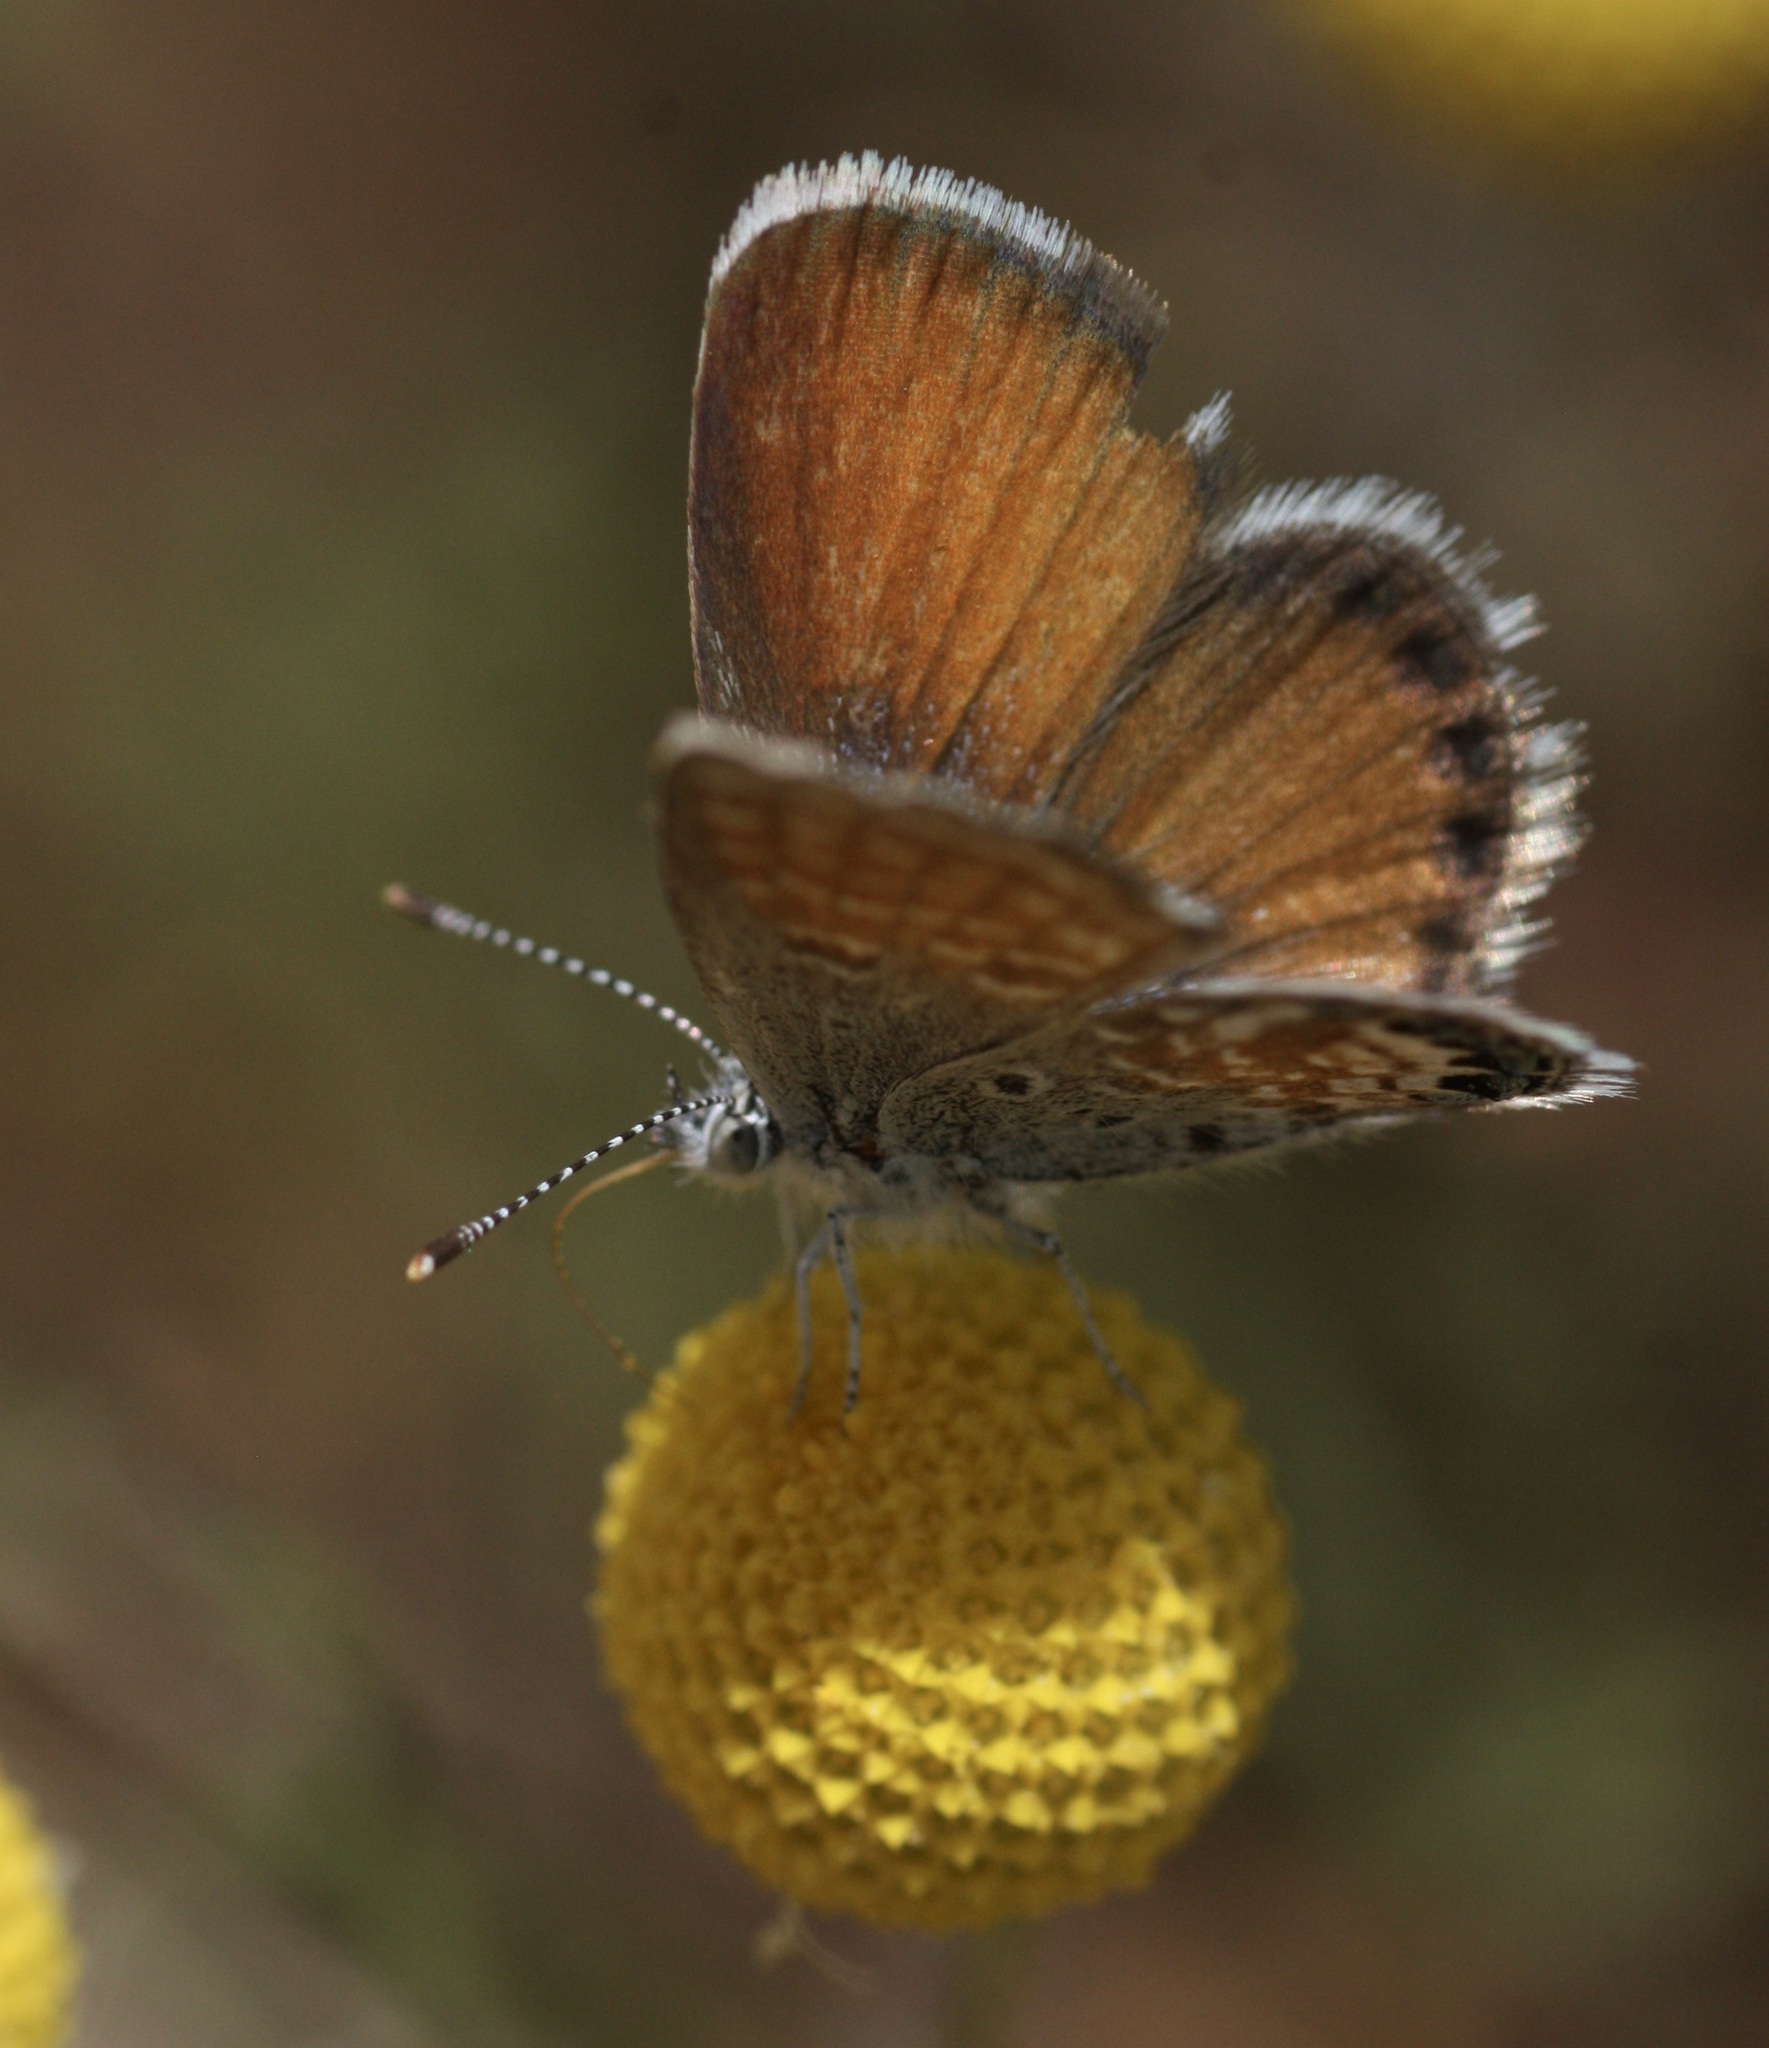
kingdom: Animalia
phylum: Arthropoda
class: Insecta
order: Lepidoptera
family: Lycaenidae
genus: Brephidium
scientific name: Brephidium exilis
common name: Pygmy blue
